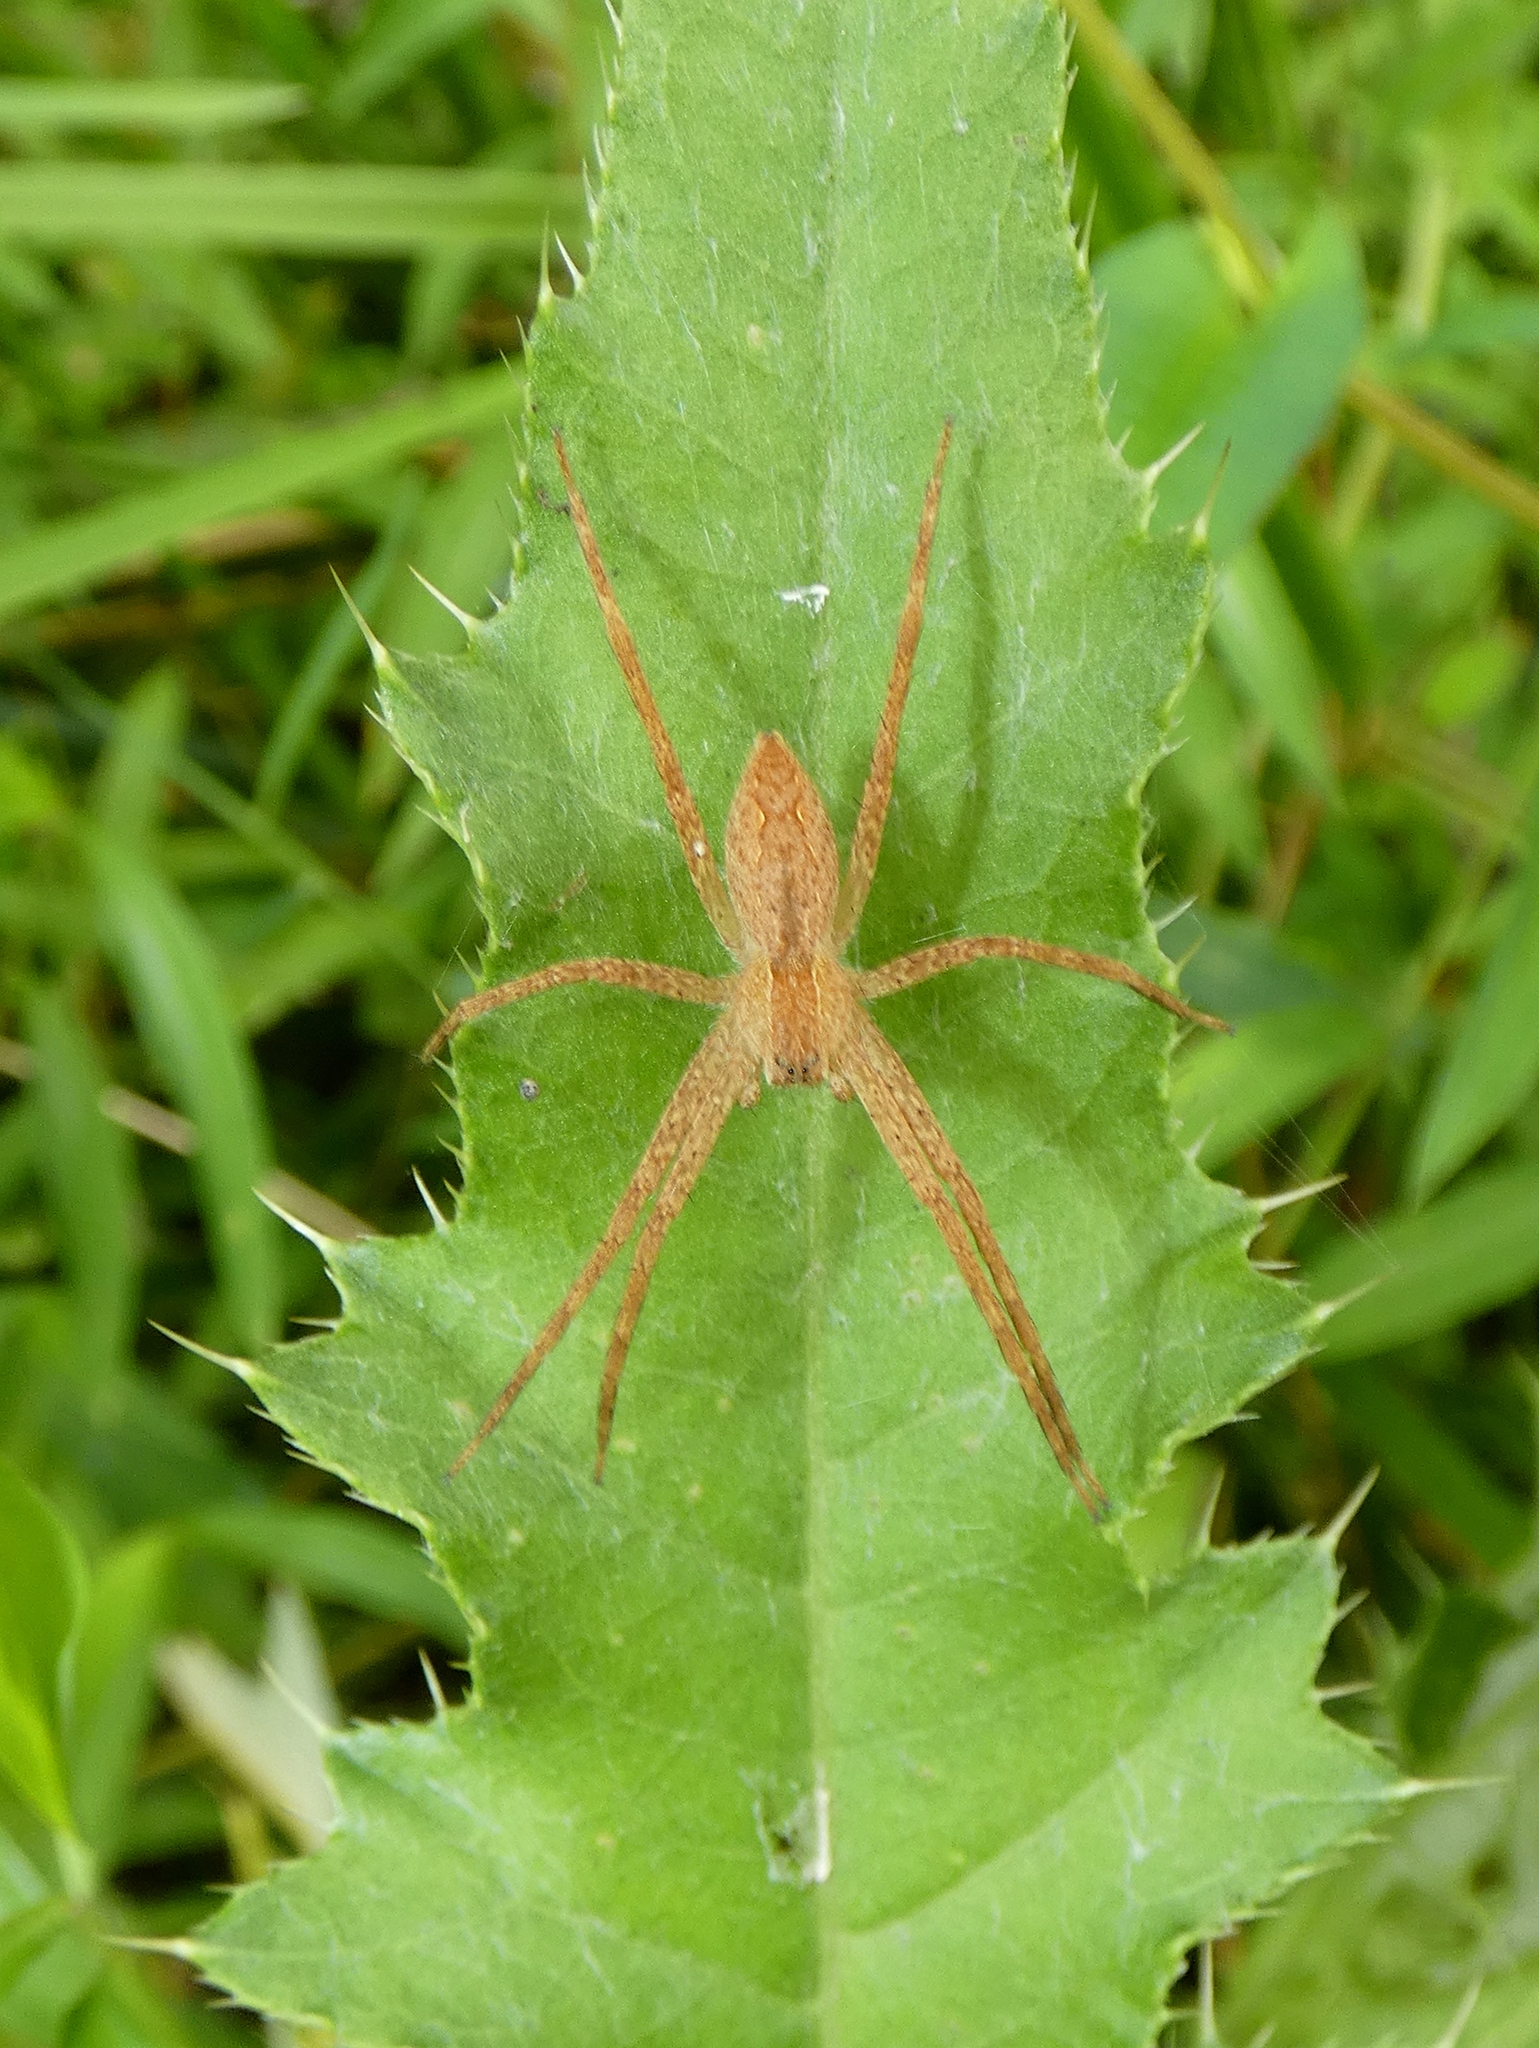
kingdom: Animalia
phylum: Arthropoda
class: Arachnida
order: Araneae
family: Pisauridae
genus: Pisaurina
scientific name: Pisaurina mira
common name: American nursery web spider
